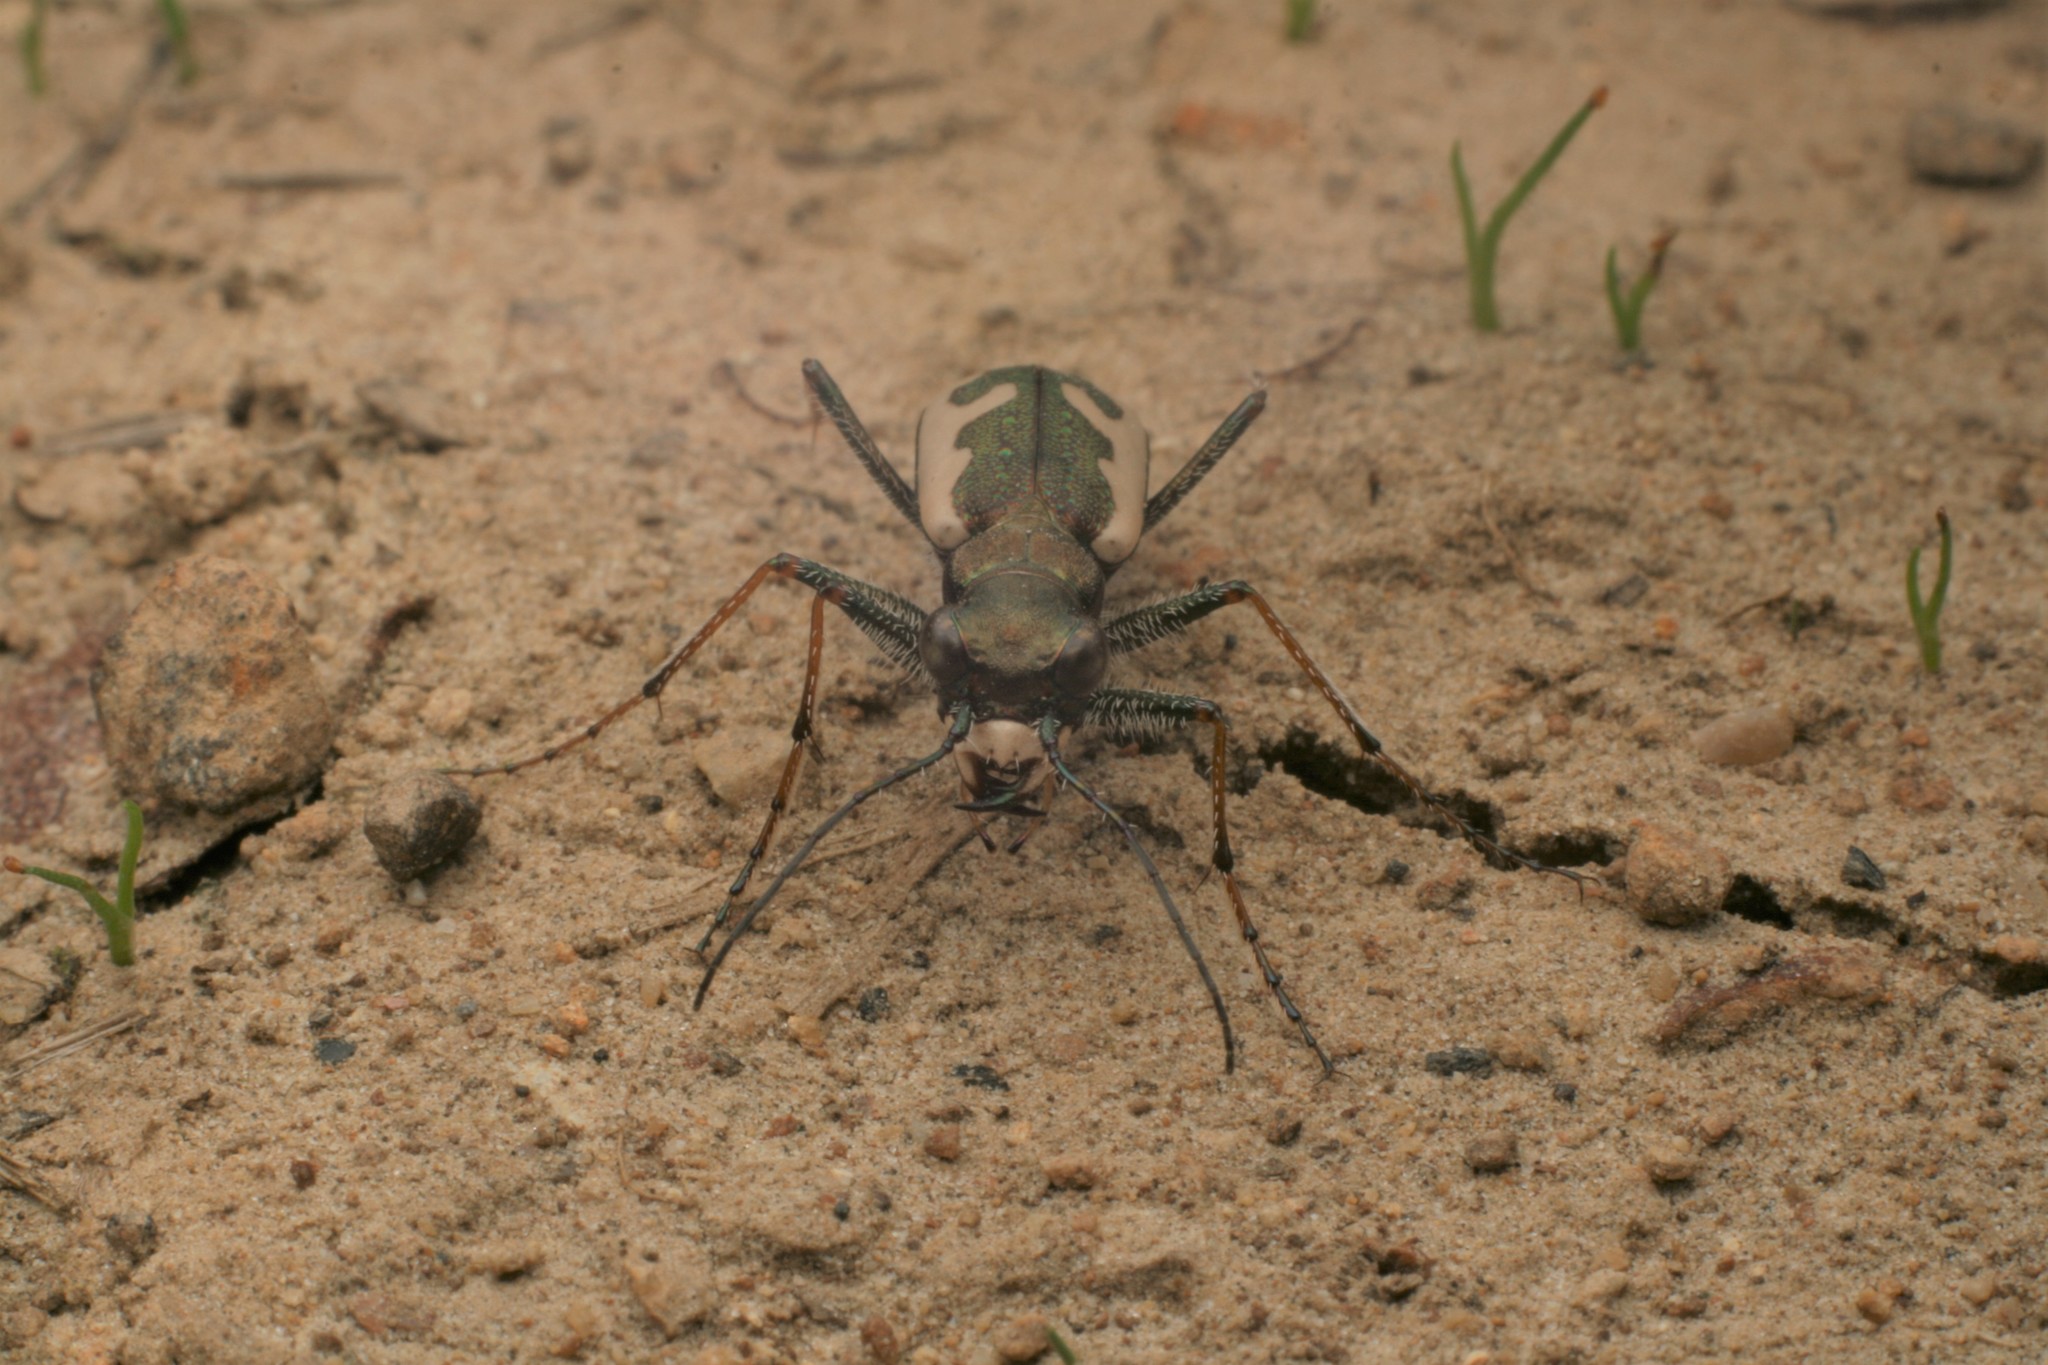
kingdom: Animalia
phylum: Arthropoda
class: Insecta
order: Coleoptera
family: Carabidae
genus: Neocicindela
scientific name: Neocicindela latecincta
